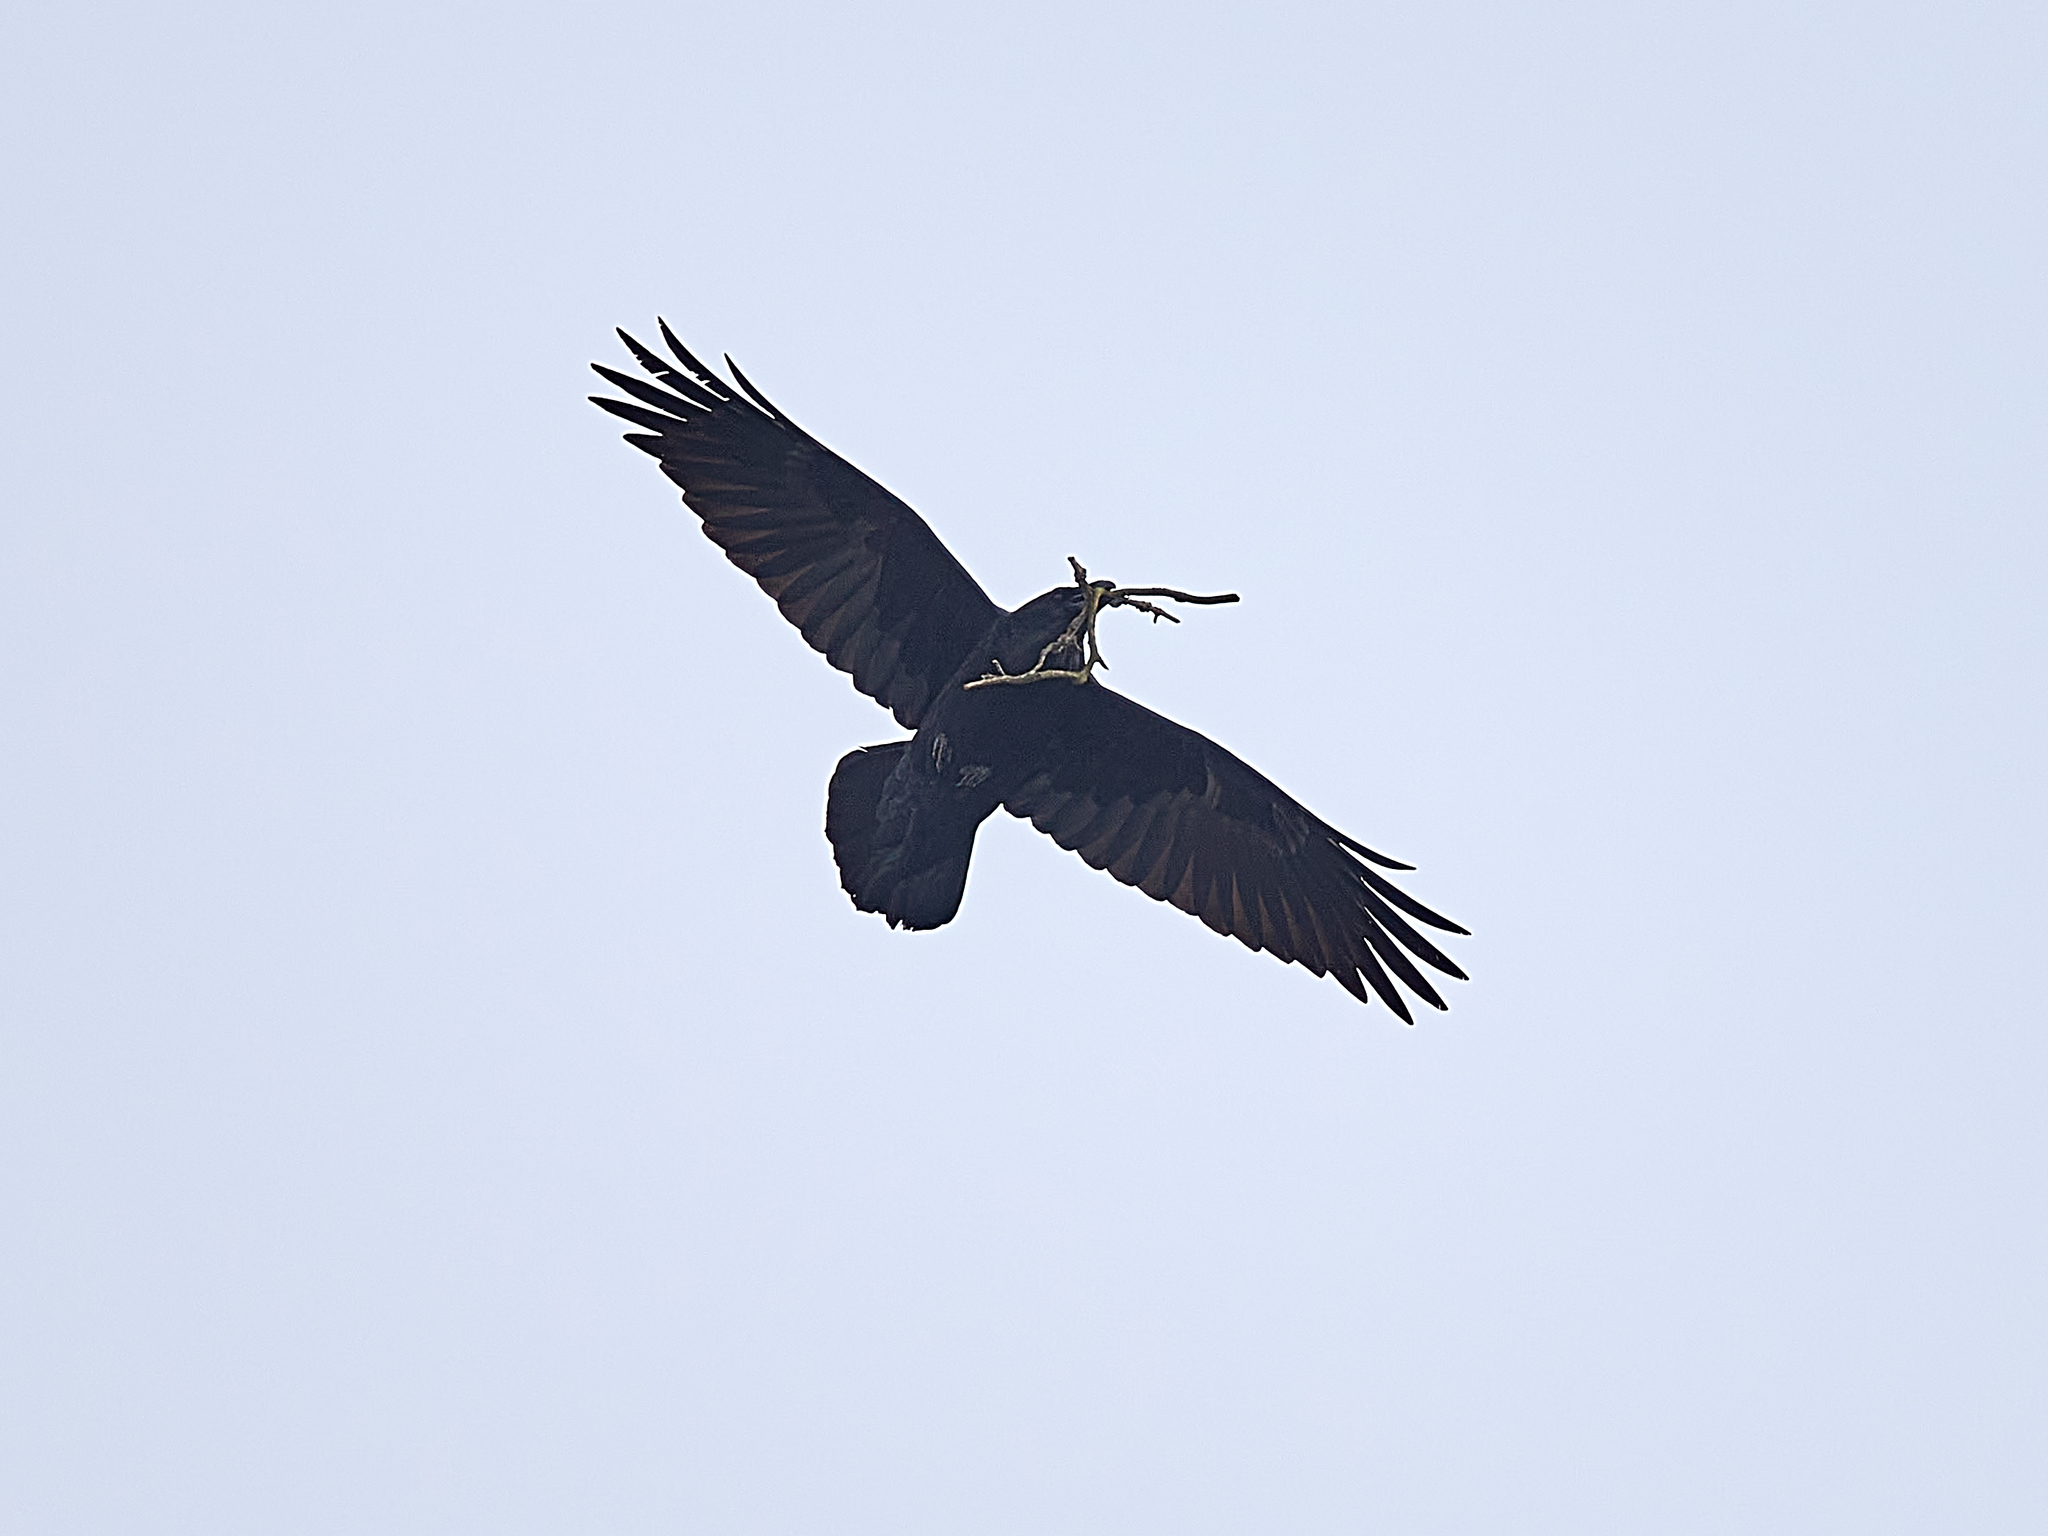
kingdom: Animalia
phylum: Chordata
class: Aves
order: Passeriformes
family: Corvidae
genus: Corvus
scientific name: Corvus corax
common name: Common raven
